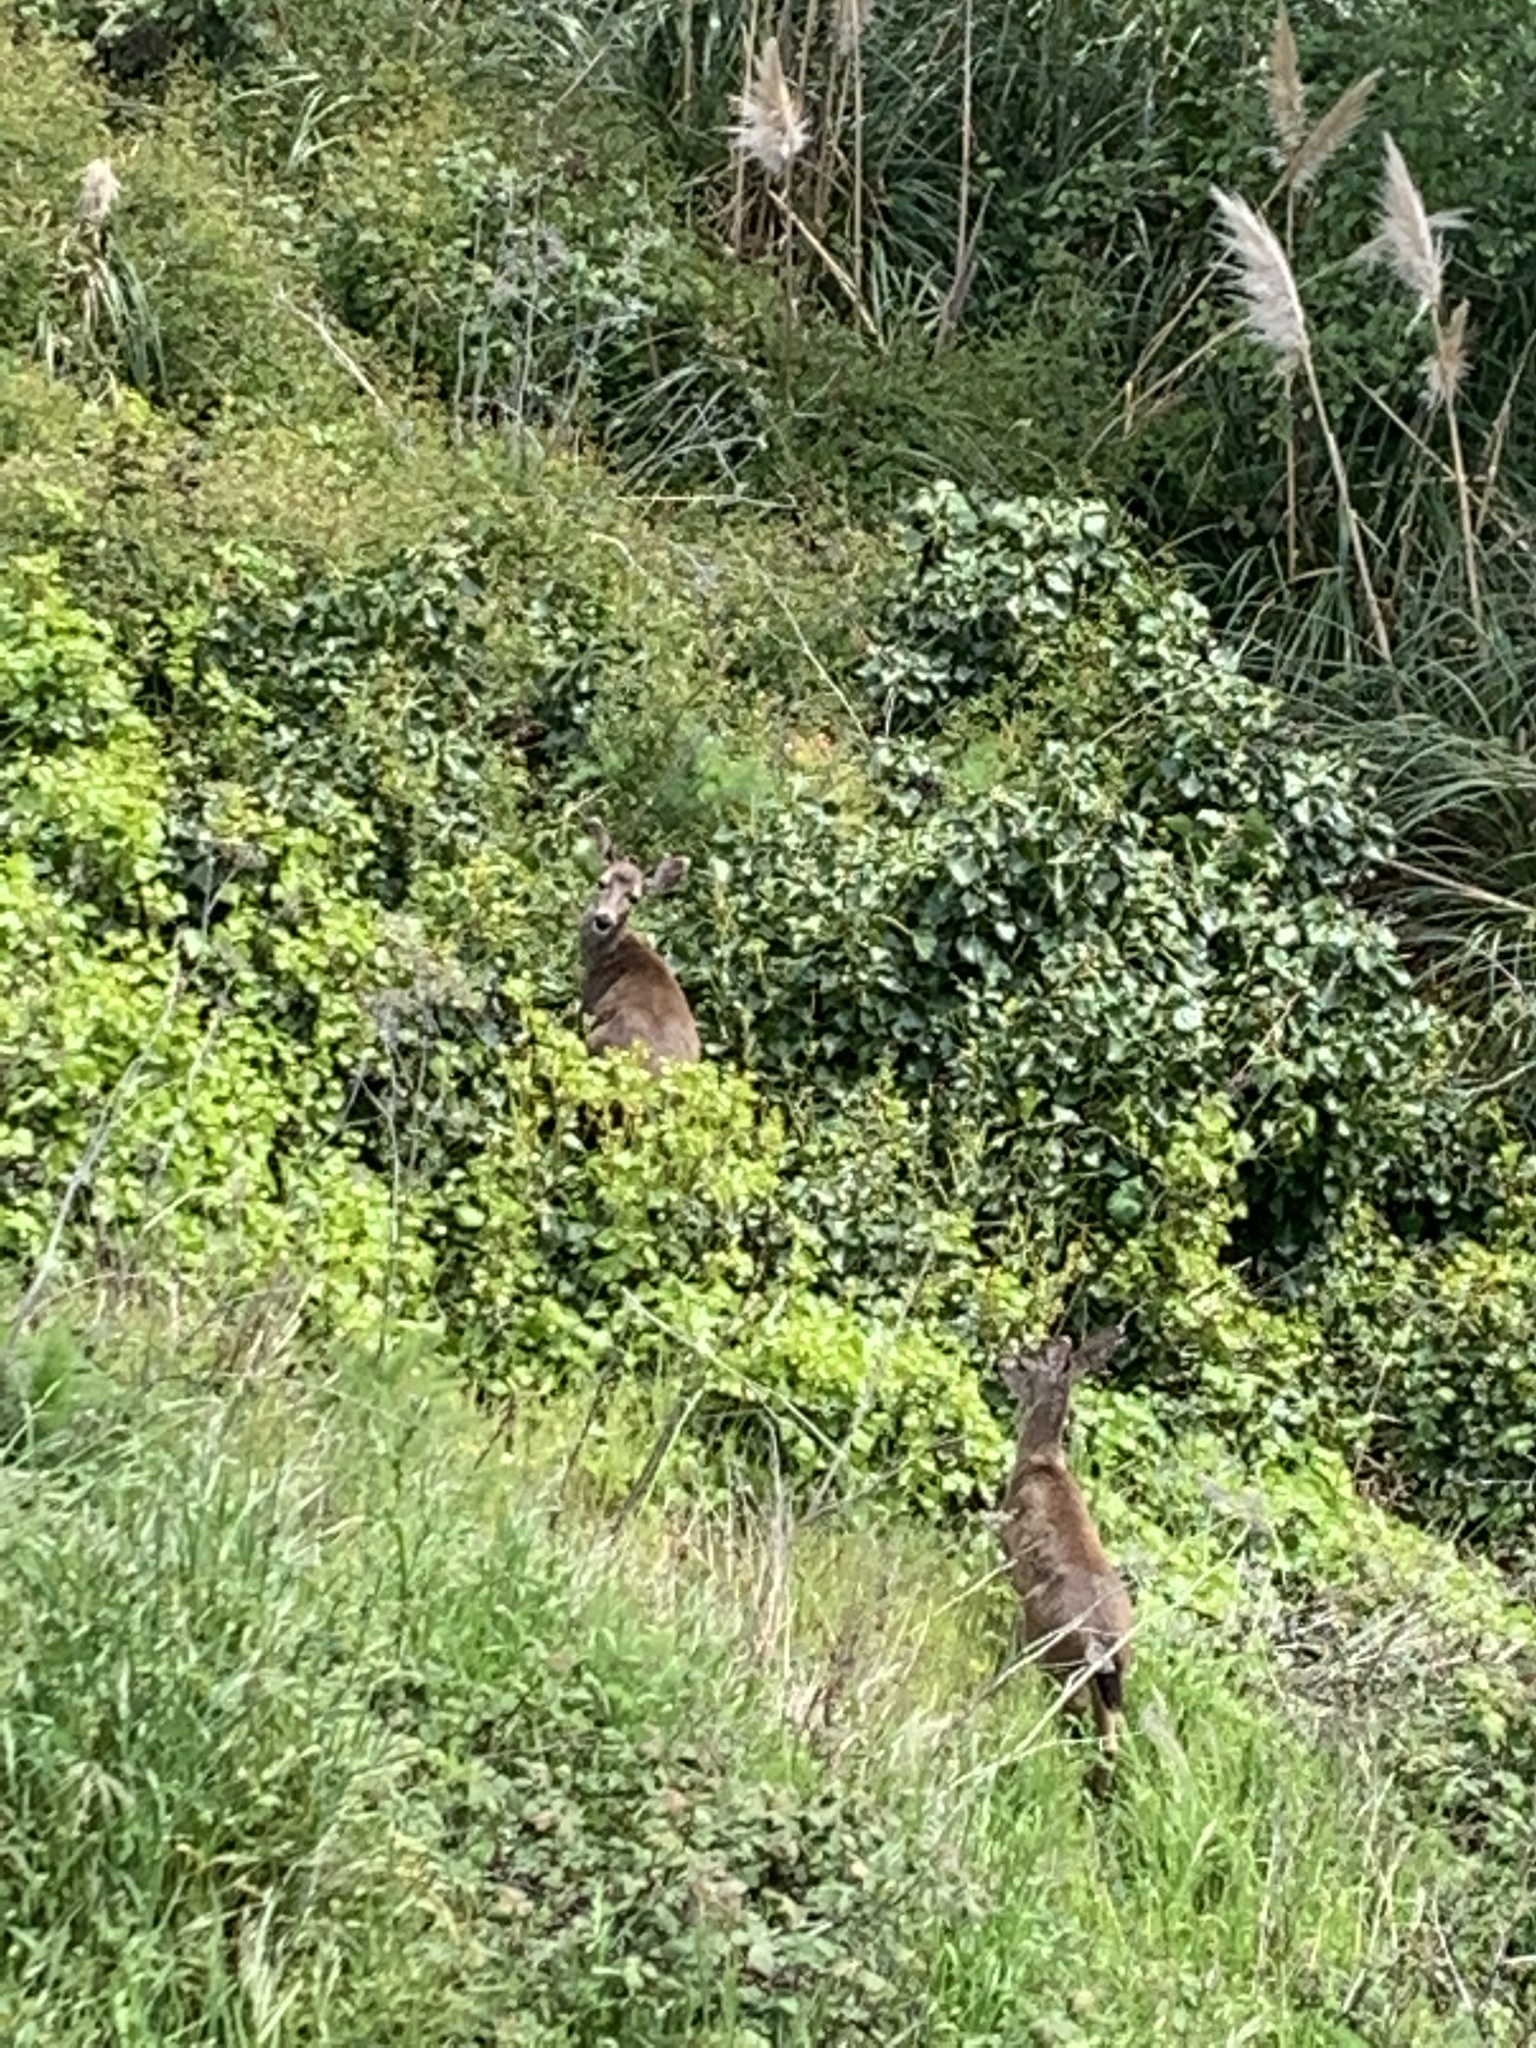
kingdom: Animalia
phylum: Chordata
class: Mammalia
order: Artiodactyla
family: Cervidae
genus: Odocoileus
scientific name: Odocoileus hemionus
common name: Mule deer
